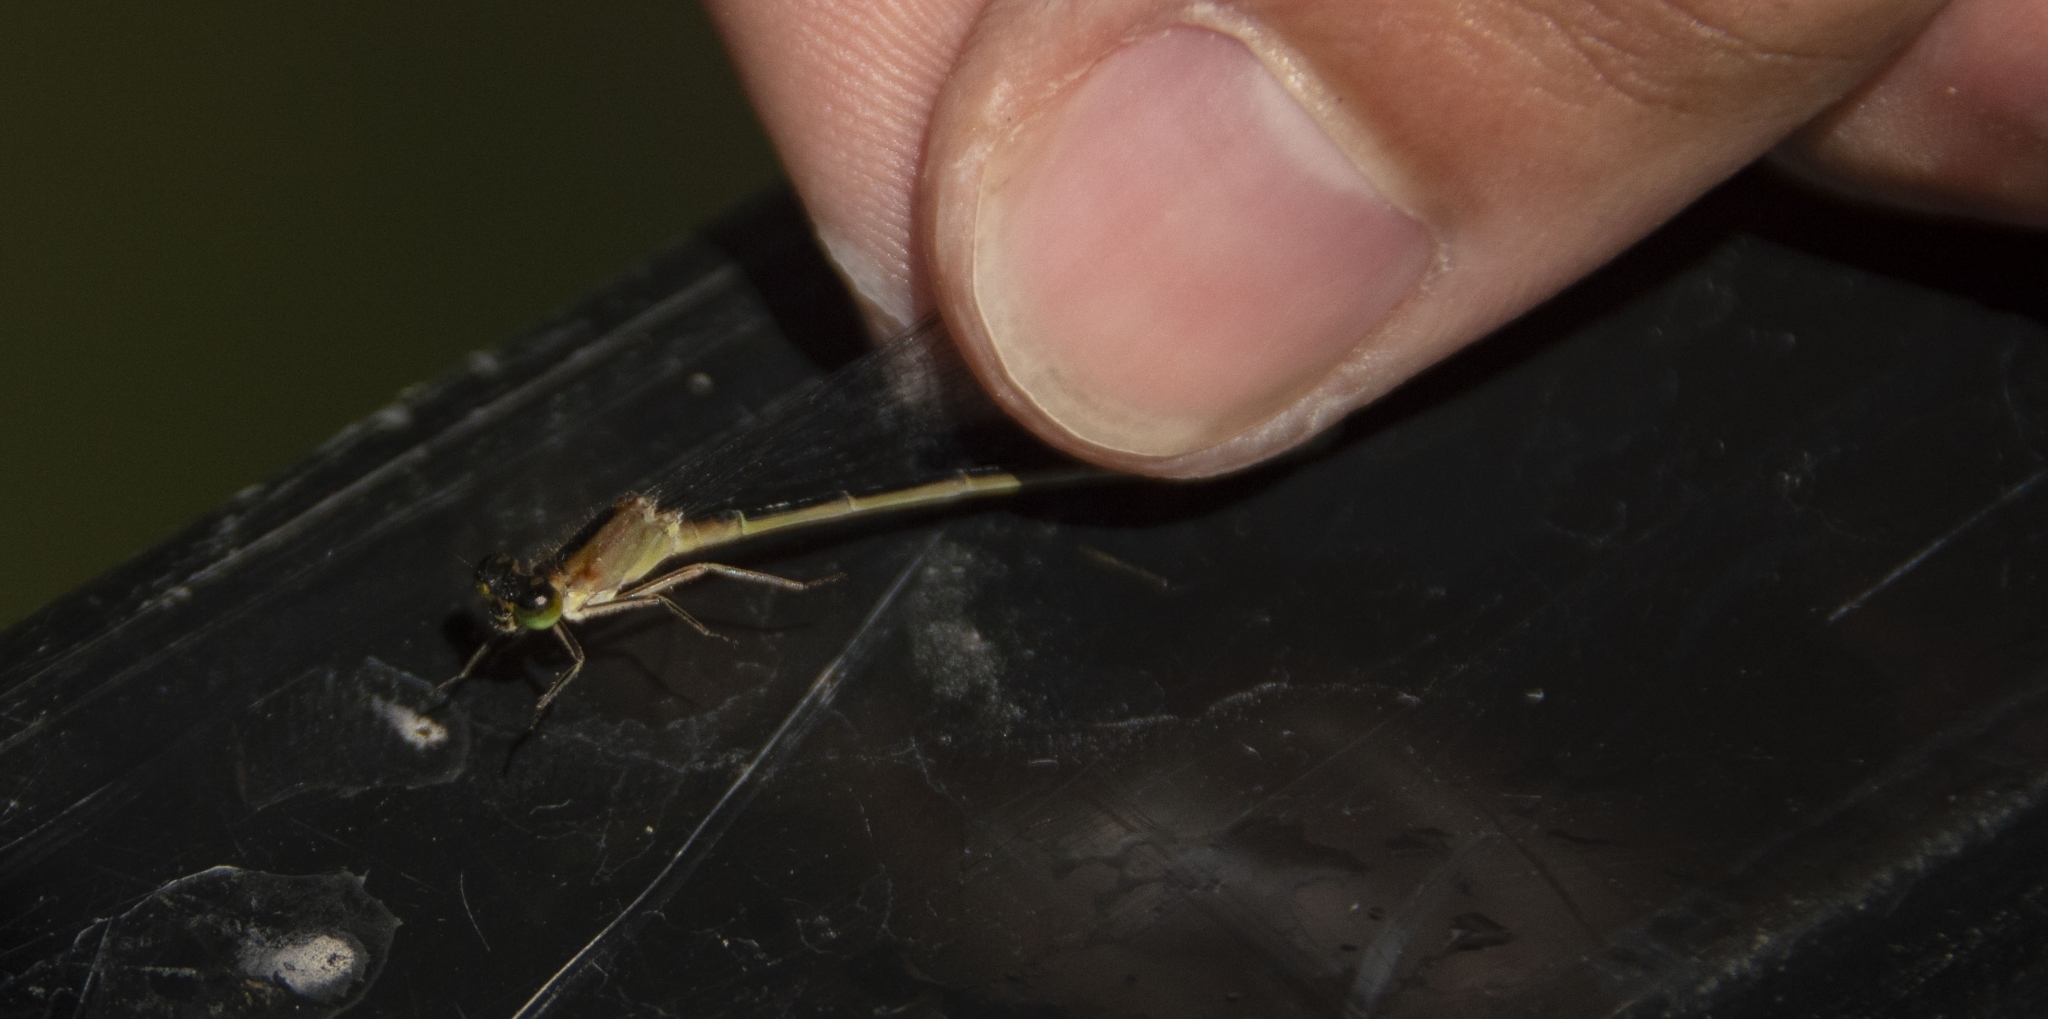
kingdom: Animalia
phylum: Arthropoda
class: Insecta
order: Odonata
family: Coenagrionidae
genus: Ischnura
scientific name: Ischnura elegans
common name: Blue-tailed damselfly
